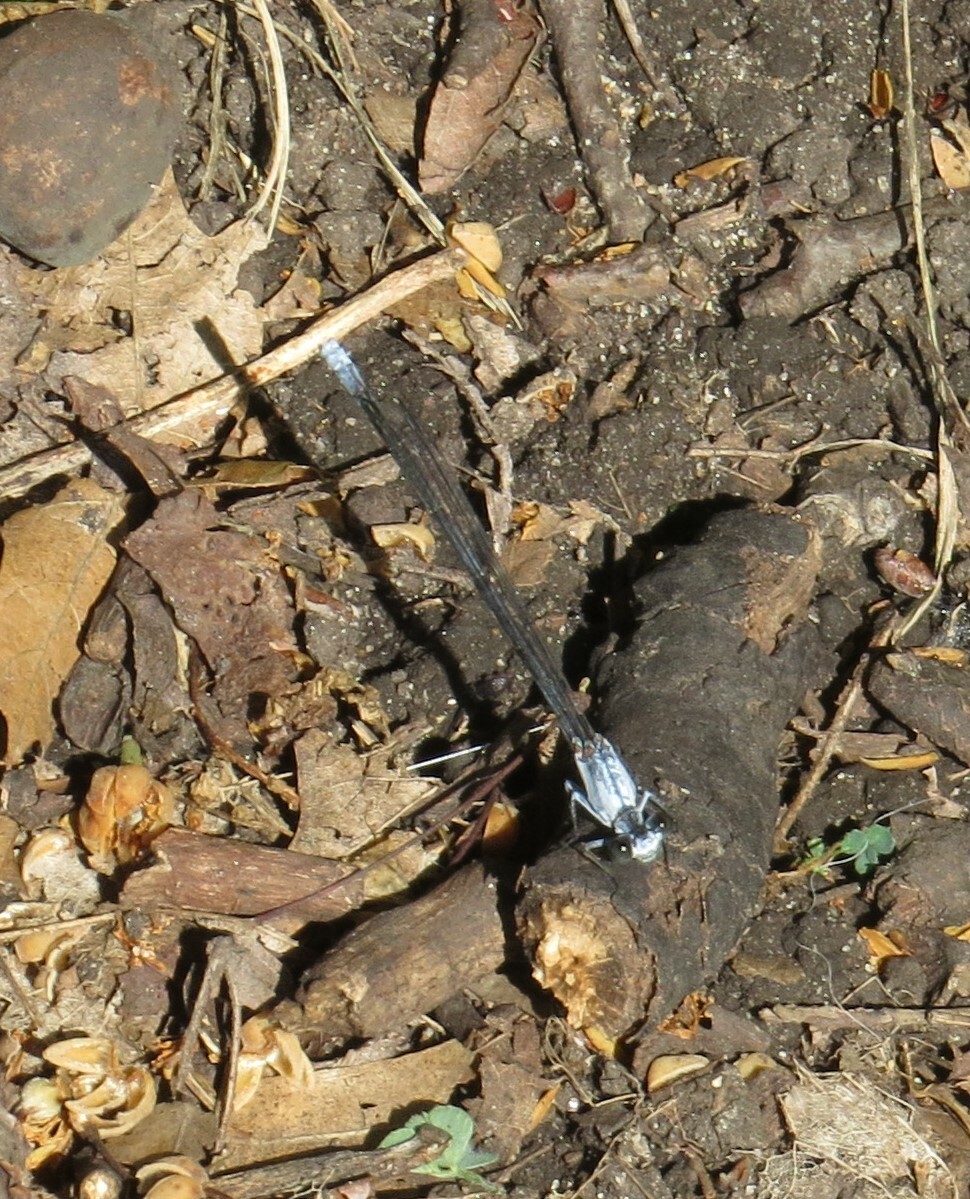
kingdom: Animalia
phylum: Arthropoda
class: Insecta
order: Odonata
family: Coenagrionidae
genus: Argia
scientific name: Argia moesta
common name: Powdered dancer
